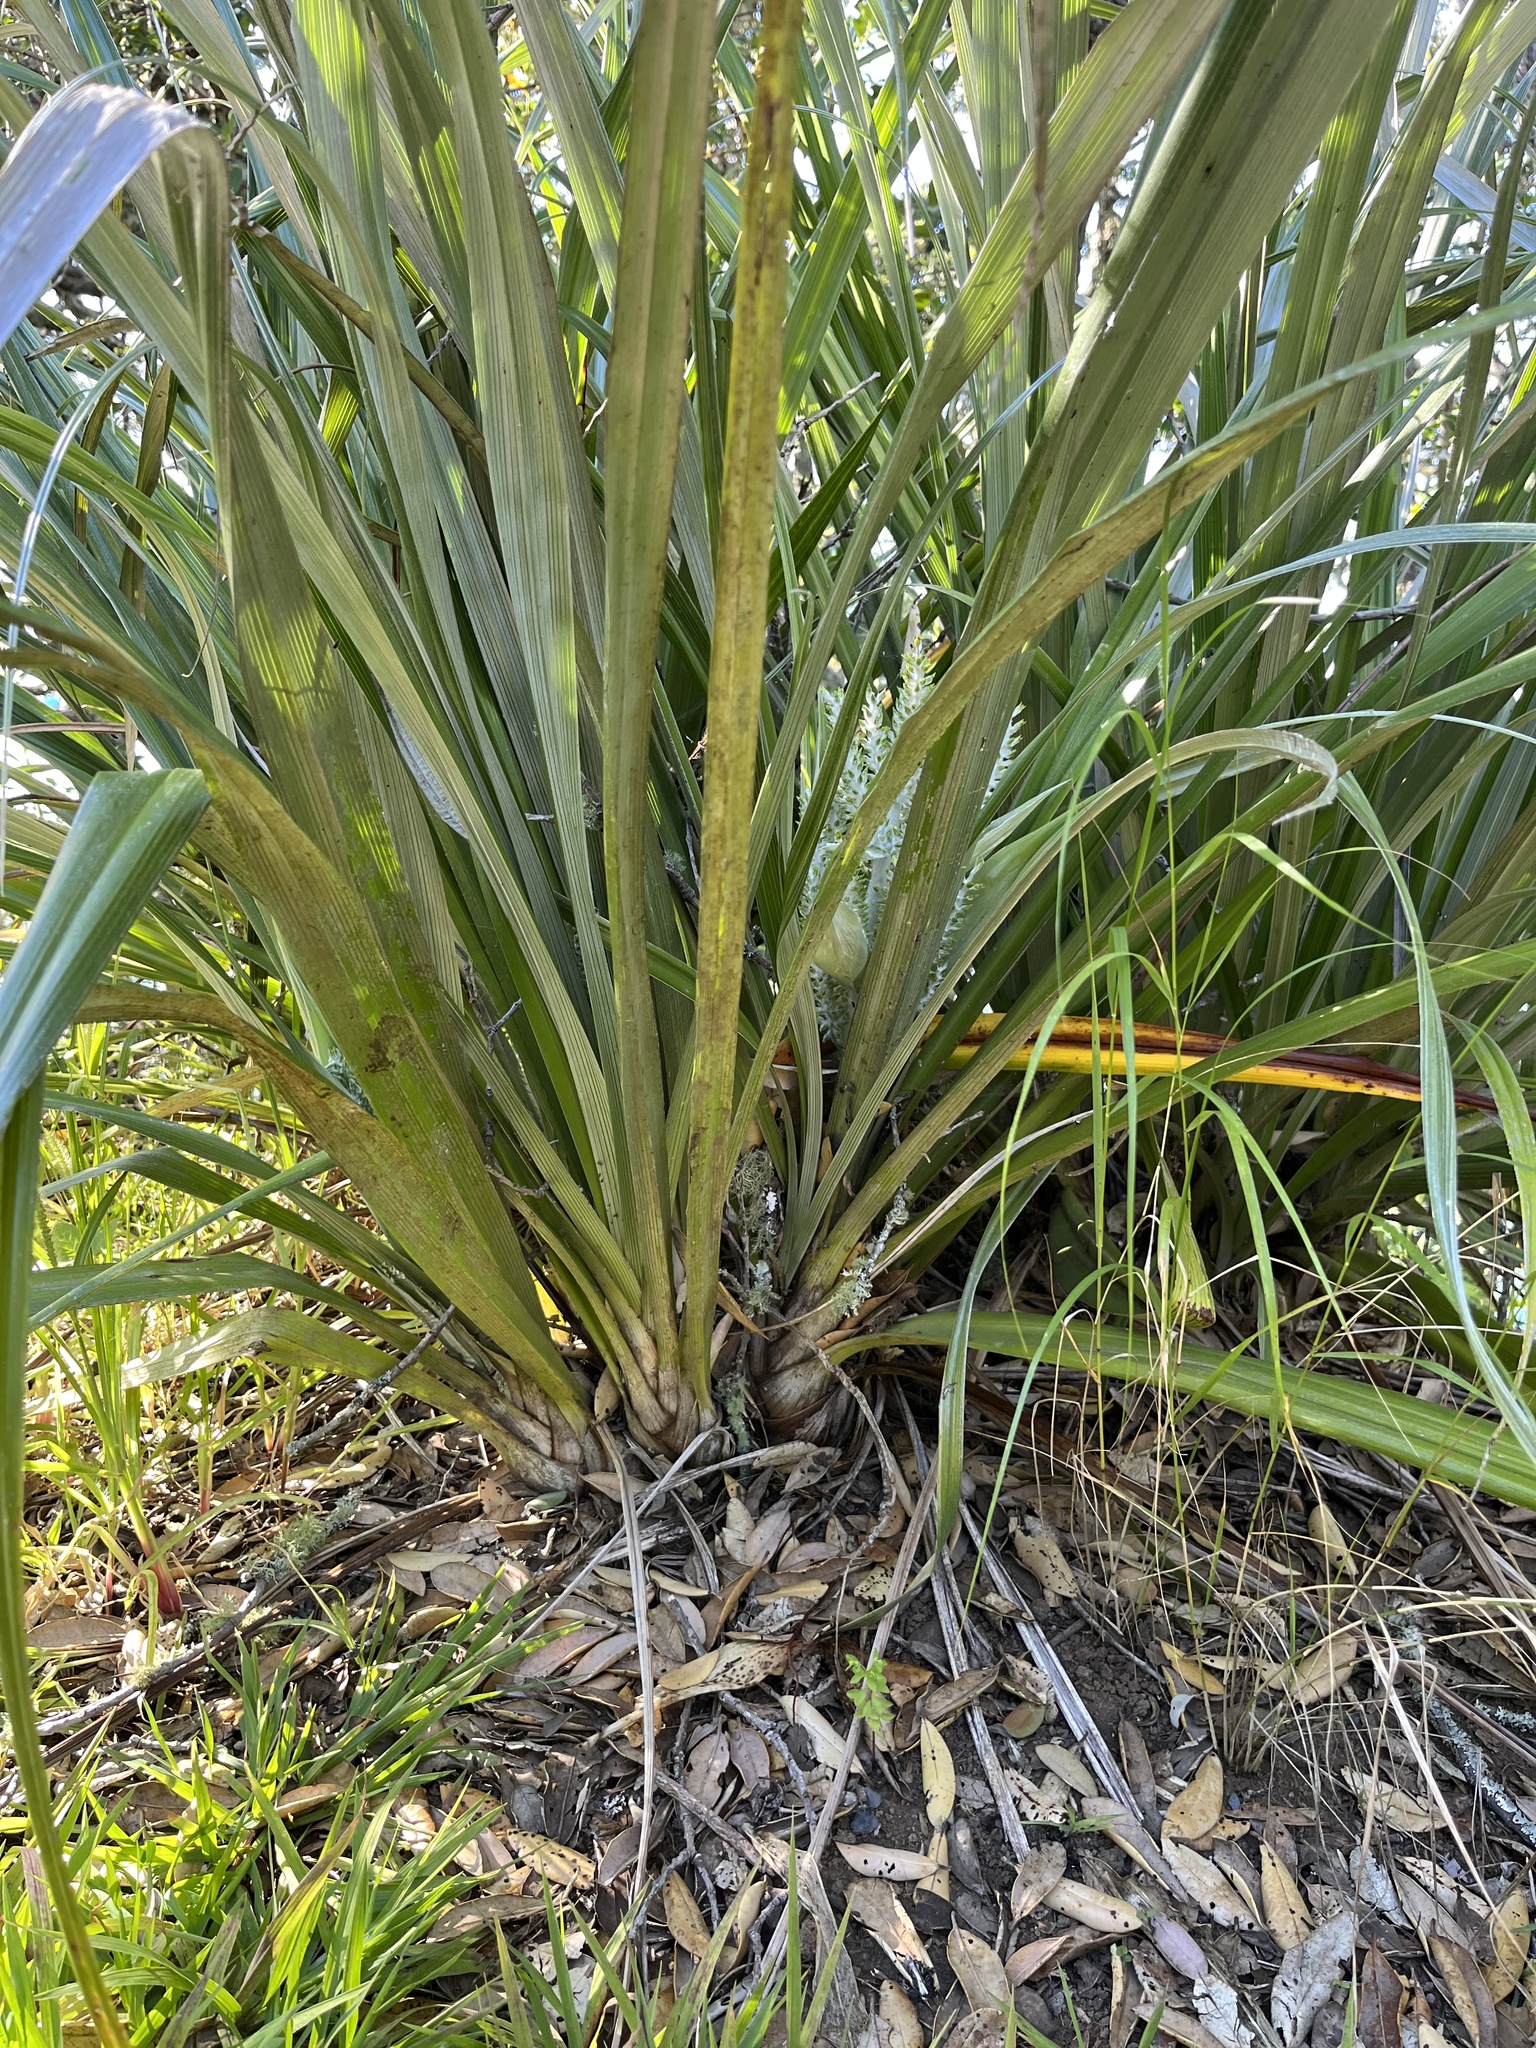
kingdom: Plantae
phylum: Tracheophyta
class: Liliopsida
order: Asparagales
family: Asteliaceae
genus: Astelia
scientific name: Astelia banksii
